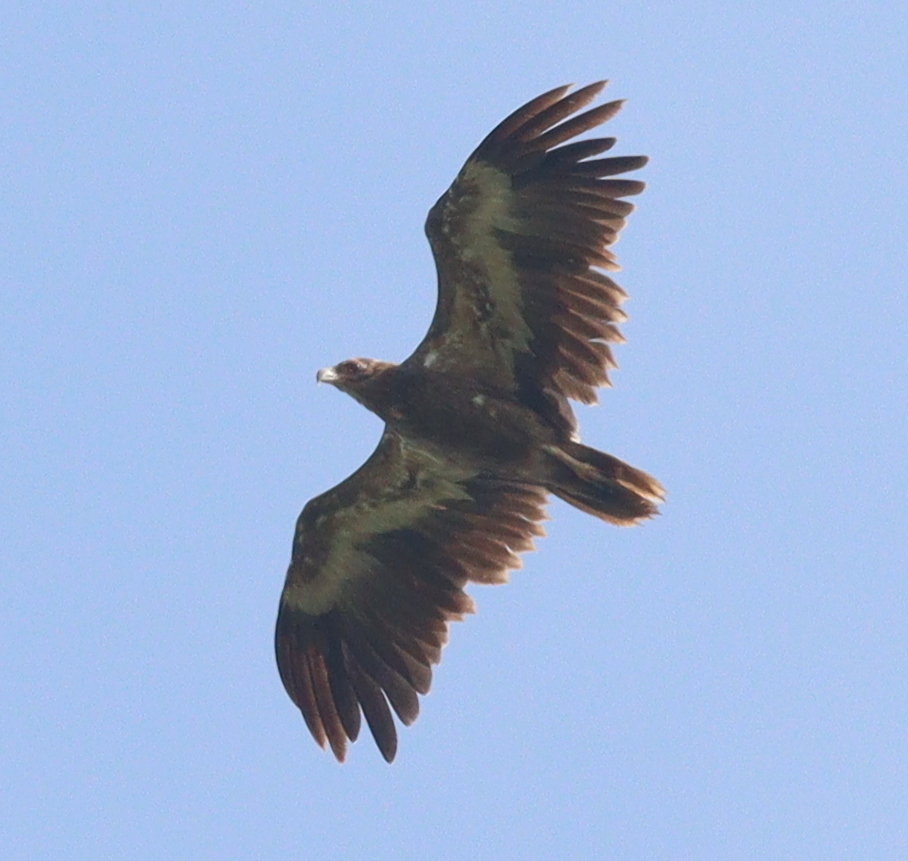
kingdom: Animalia
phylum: Chordata
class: Aves
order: Accipitriformes
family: Accipitridae
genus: Gypohierax
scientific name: Gypohierax angolensis
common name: Palm-nut vulture
